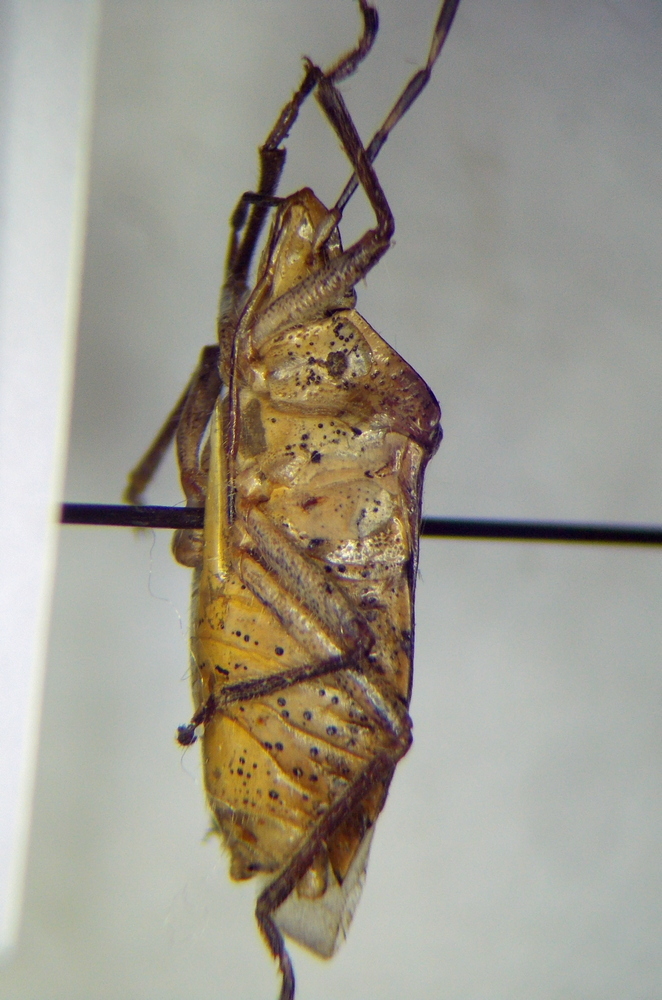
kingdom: Animalia
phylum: Arthropoda
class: Insecta
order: Hemiptera
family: Pentatomidae
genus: Rhaphigaster
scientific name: Rhaphigaster nebulosa
